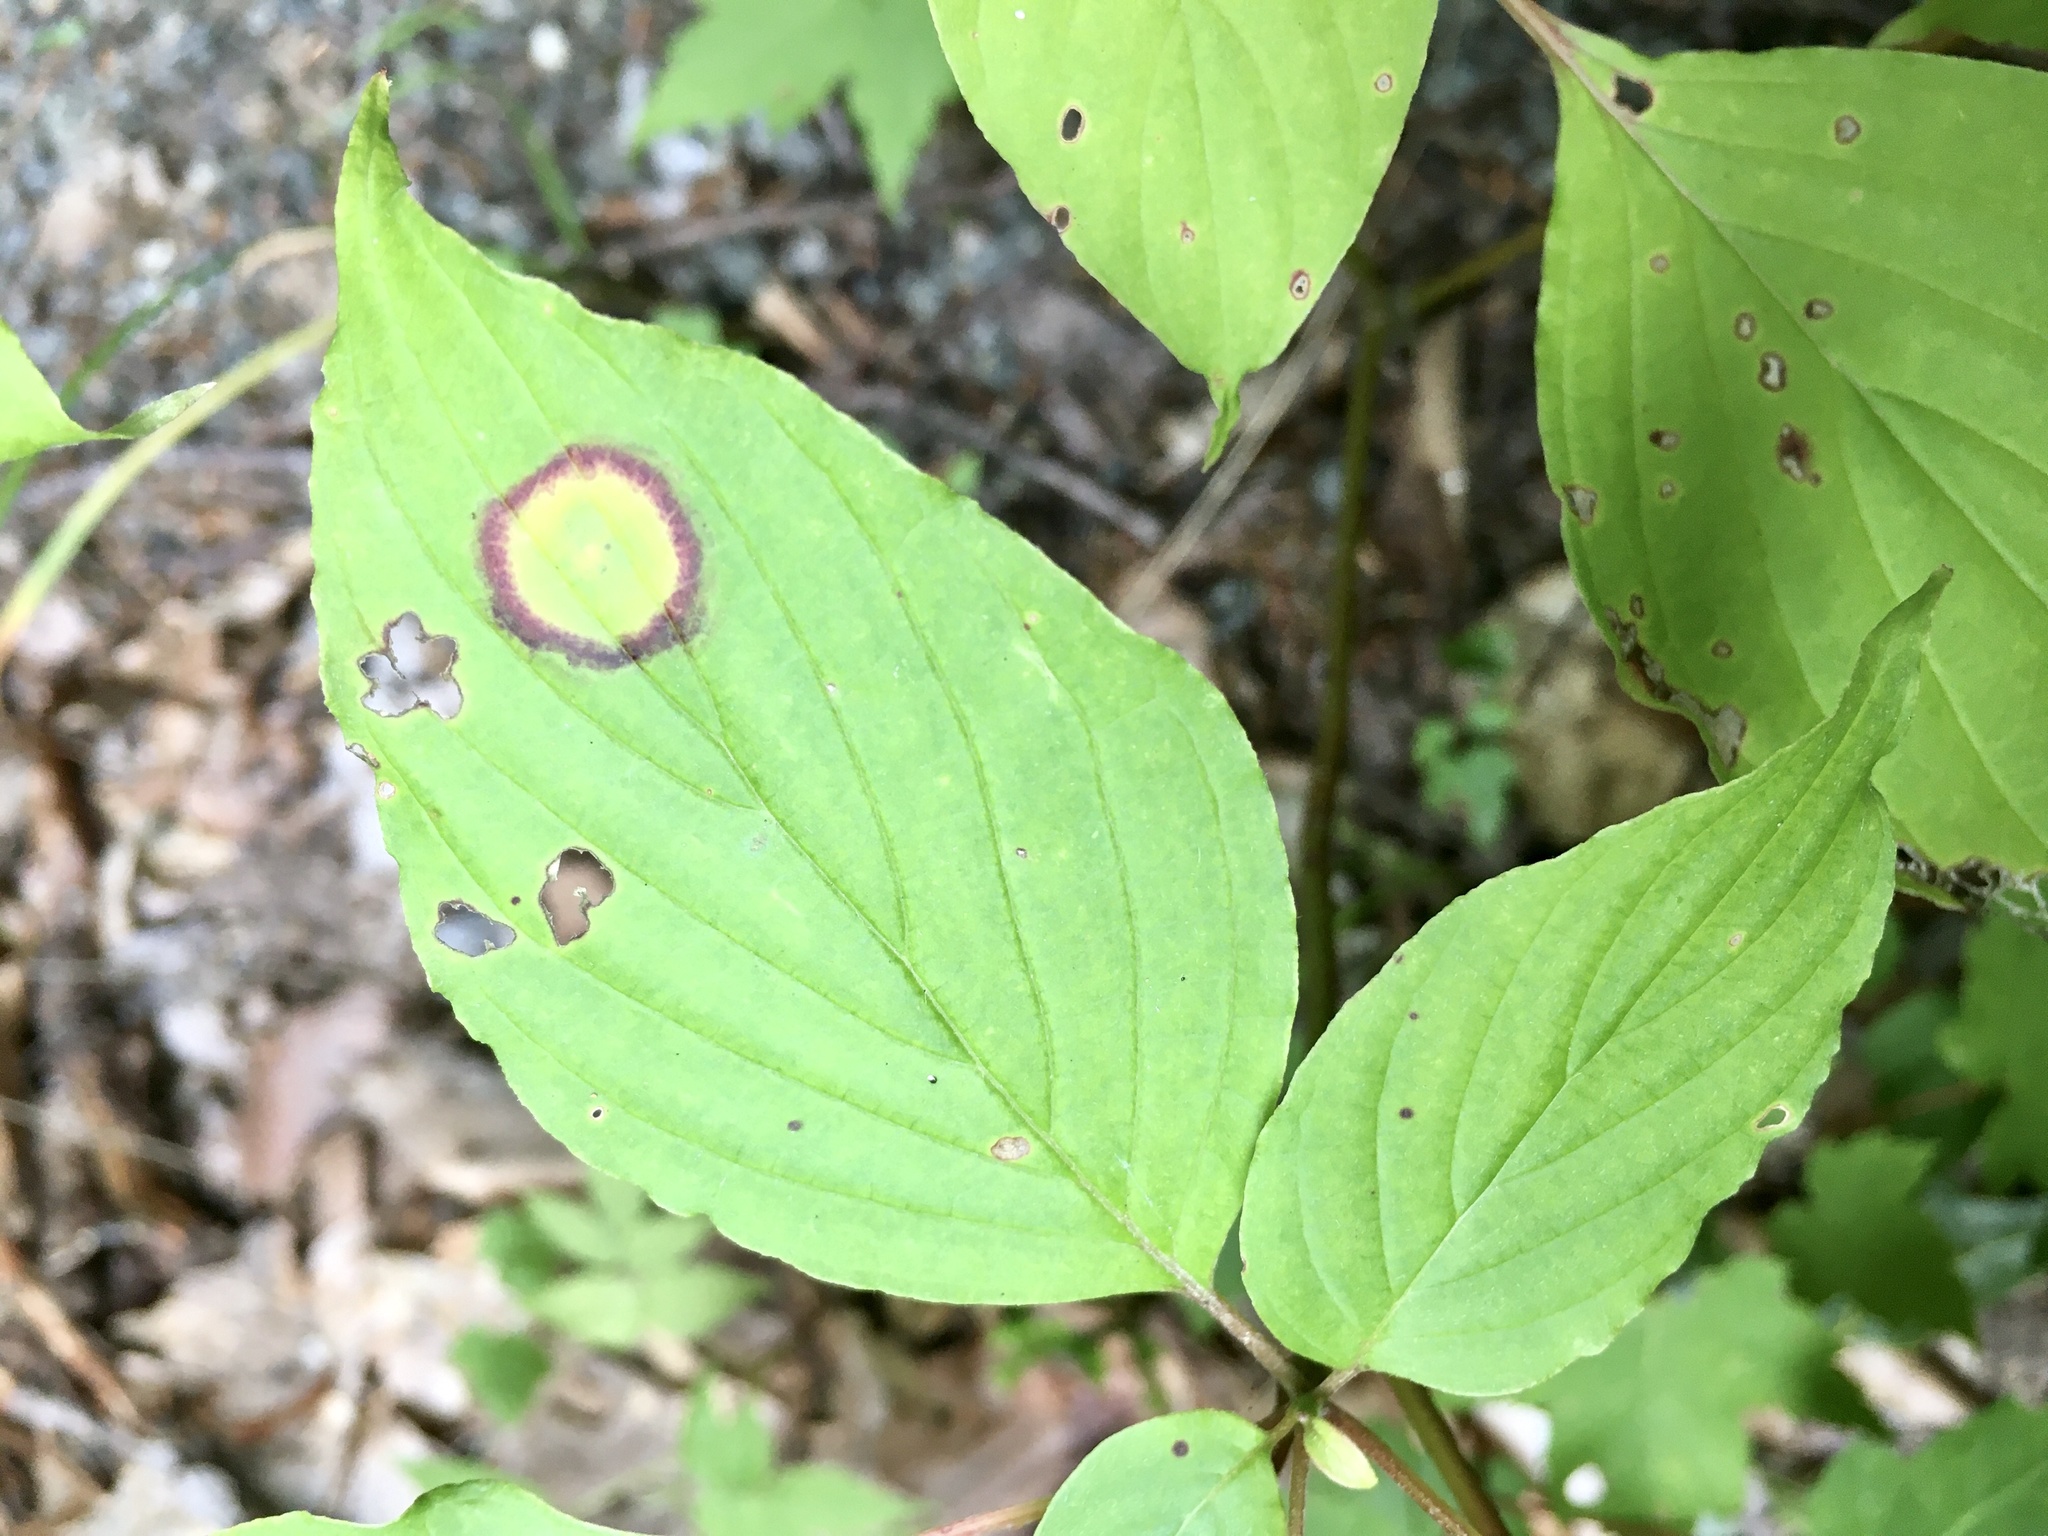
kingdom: Animalia
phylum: Arthropoda
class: Insecta
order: Diptera
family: Cecidomyiidae
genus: Parallelodiplosis
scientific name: Parallelodiplosis subtruncata
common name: Dogwood eyespot gall midge
